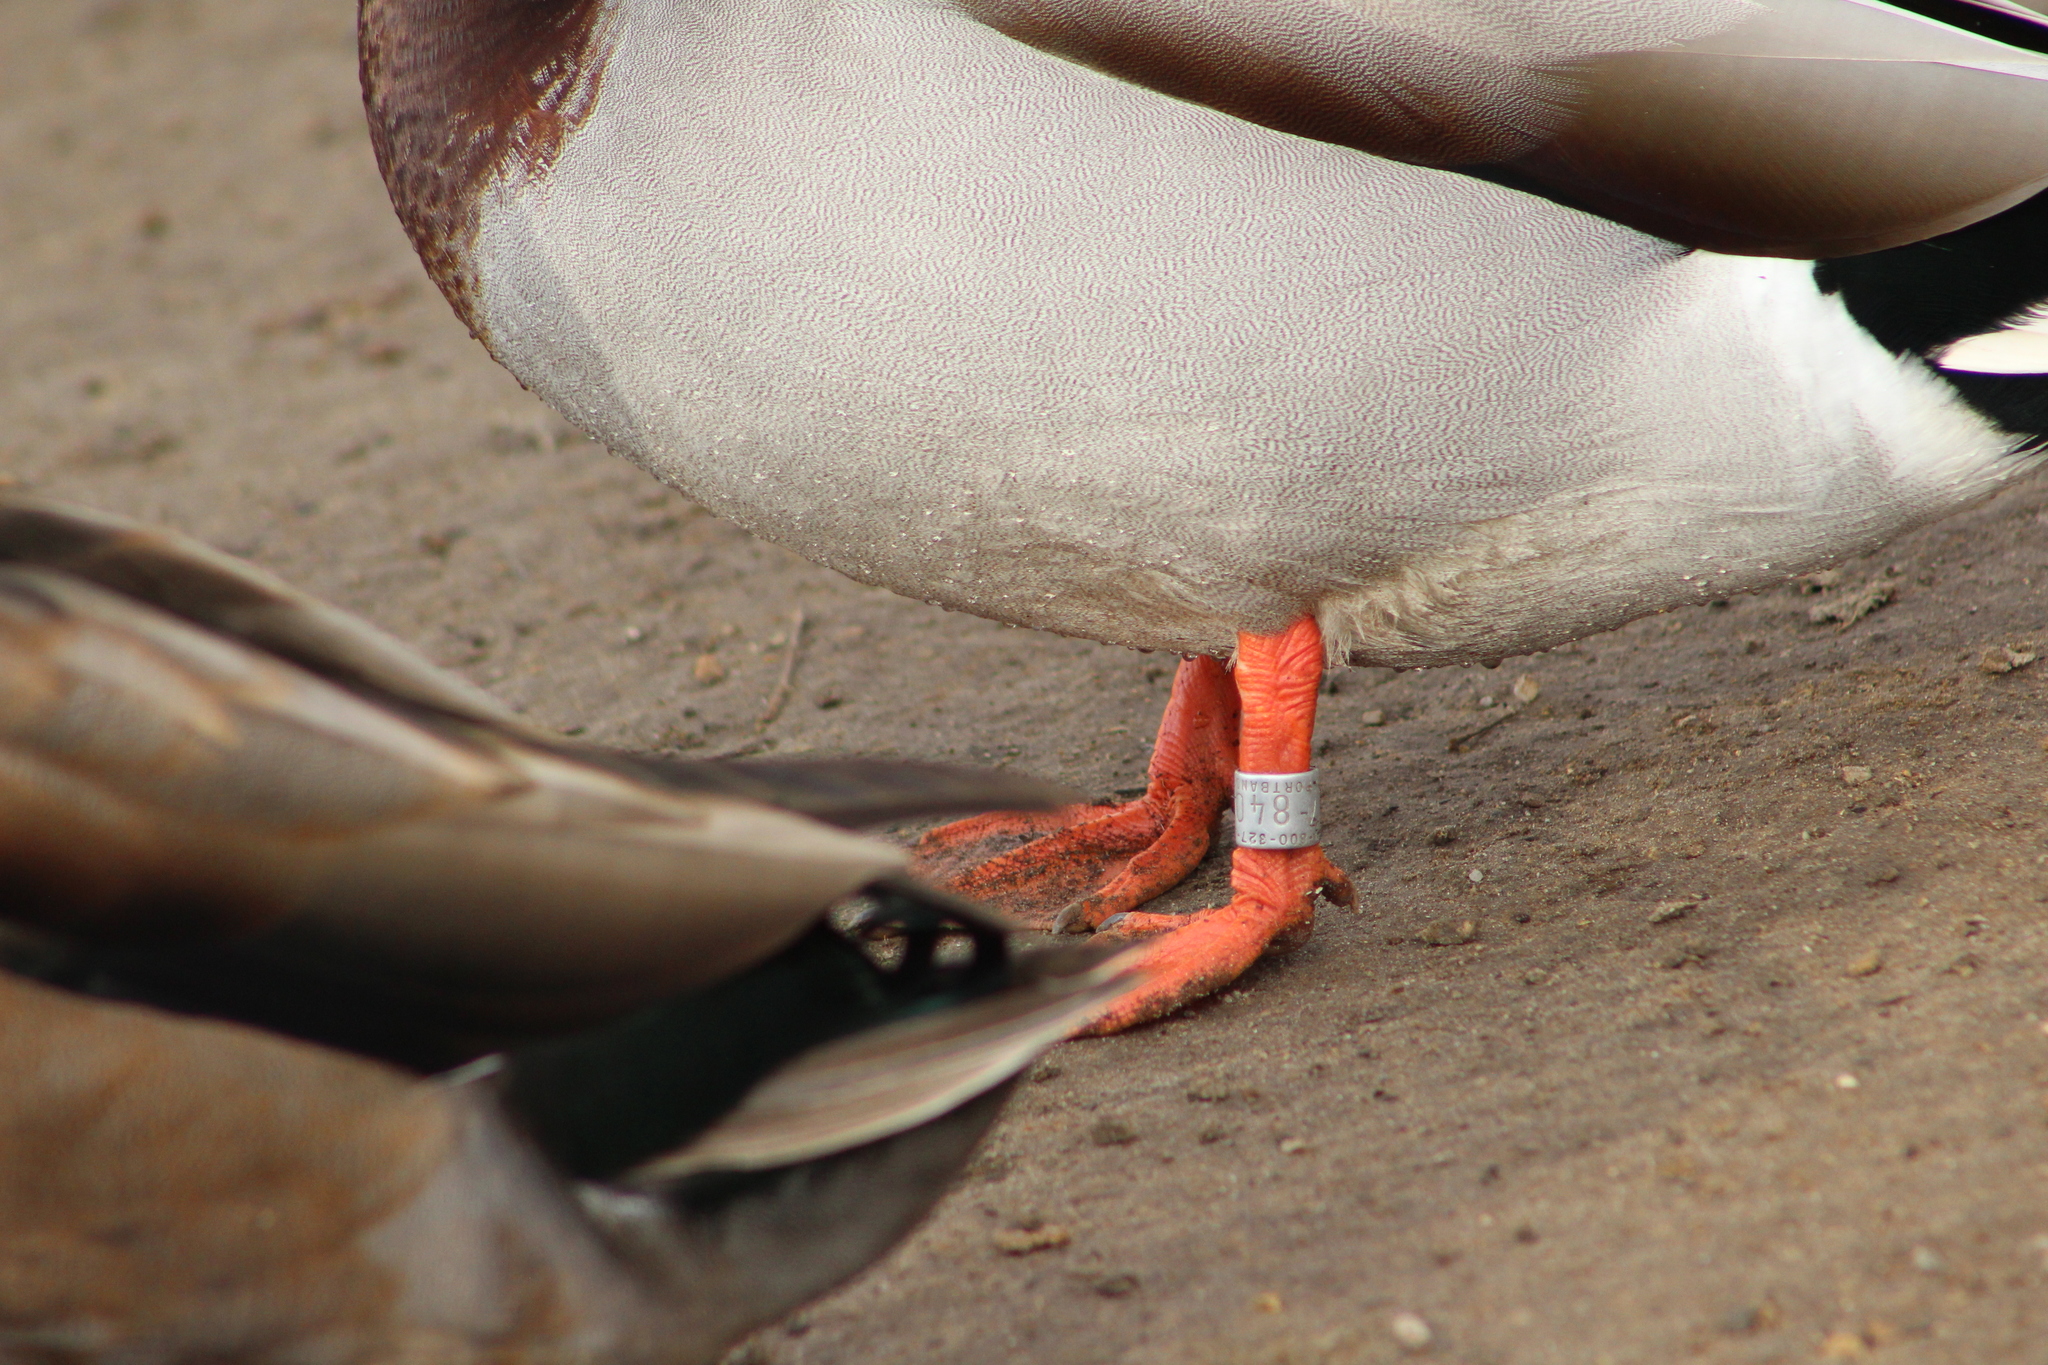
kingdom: Animalia
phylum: Chordata
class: Aves
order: Anseriformes
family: Anatidae
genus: Anas
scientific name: Anas platyrhynchos
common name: Mallard
